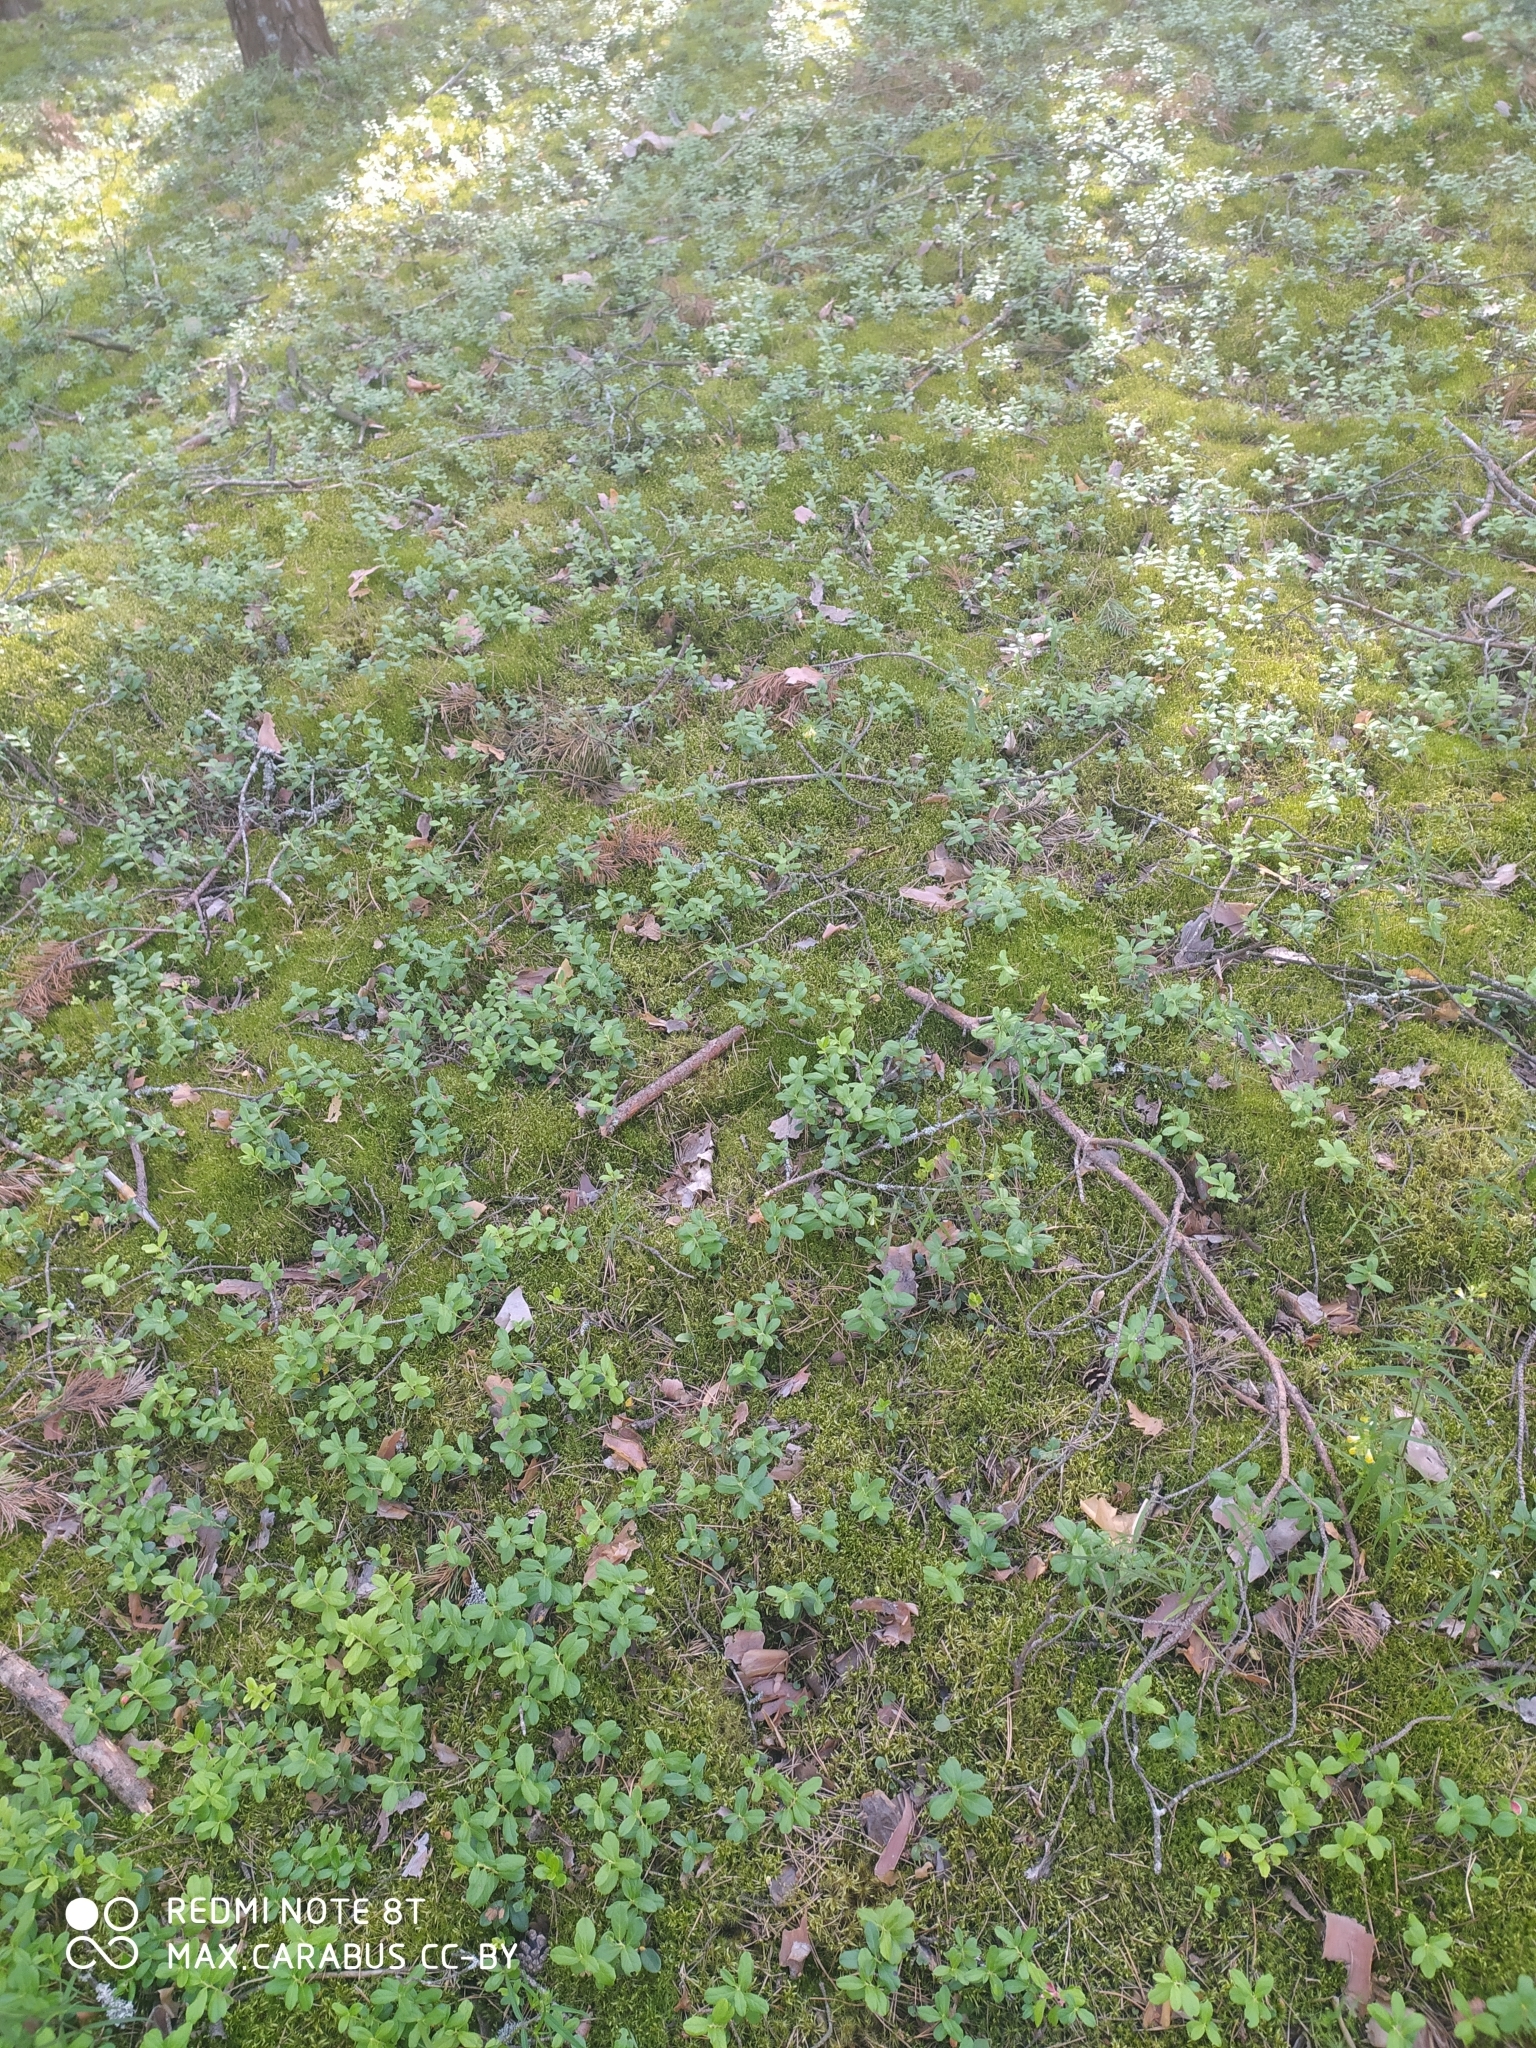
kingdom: Plantae
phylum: Tracheophyta
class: Magnoliopsida
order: Ericales
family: Ericaceae
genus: Vaccinium
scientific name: Vaccinium vitis-idaea
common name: Cowberry
